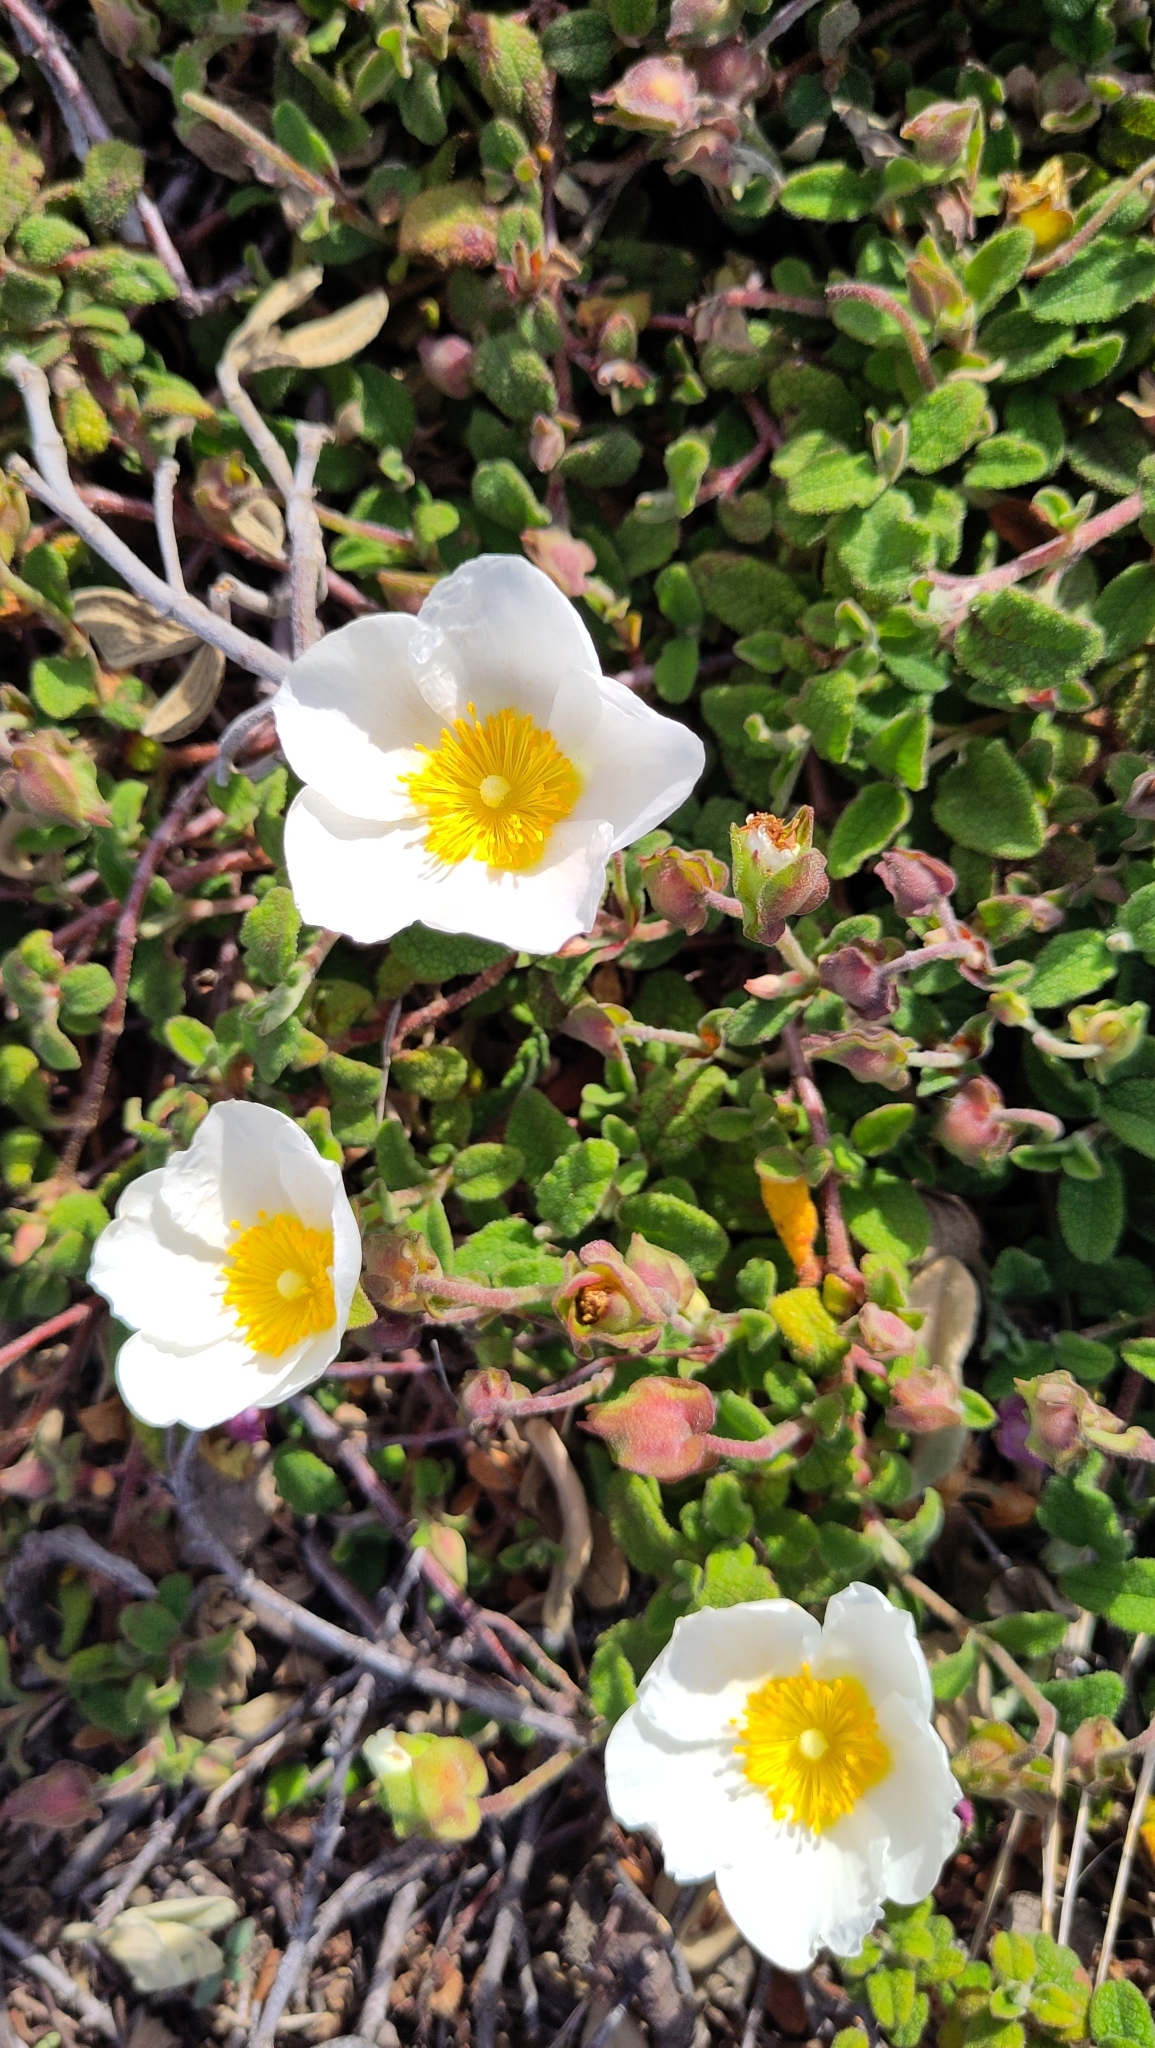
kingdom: Plantae
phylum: Tracheophyta
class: Magnoliopsida
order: Malvales
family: Cistaceae
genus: Cistus
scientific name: Cistus salviifolius
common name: Salvia cistus
